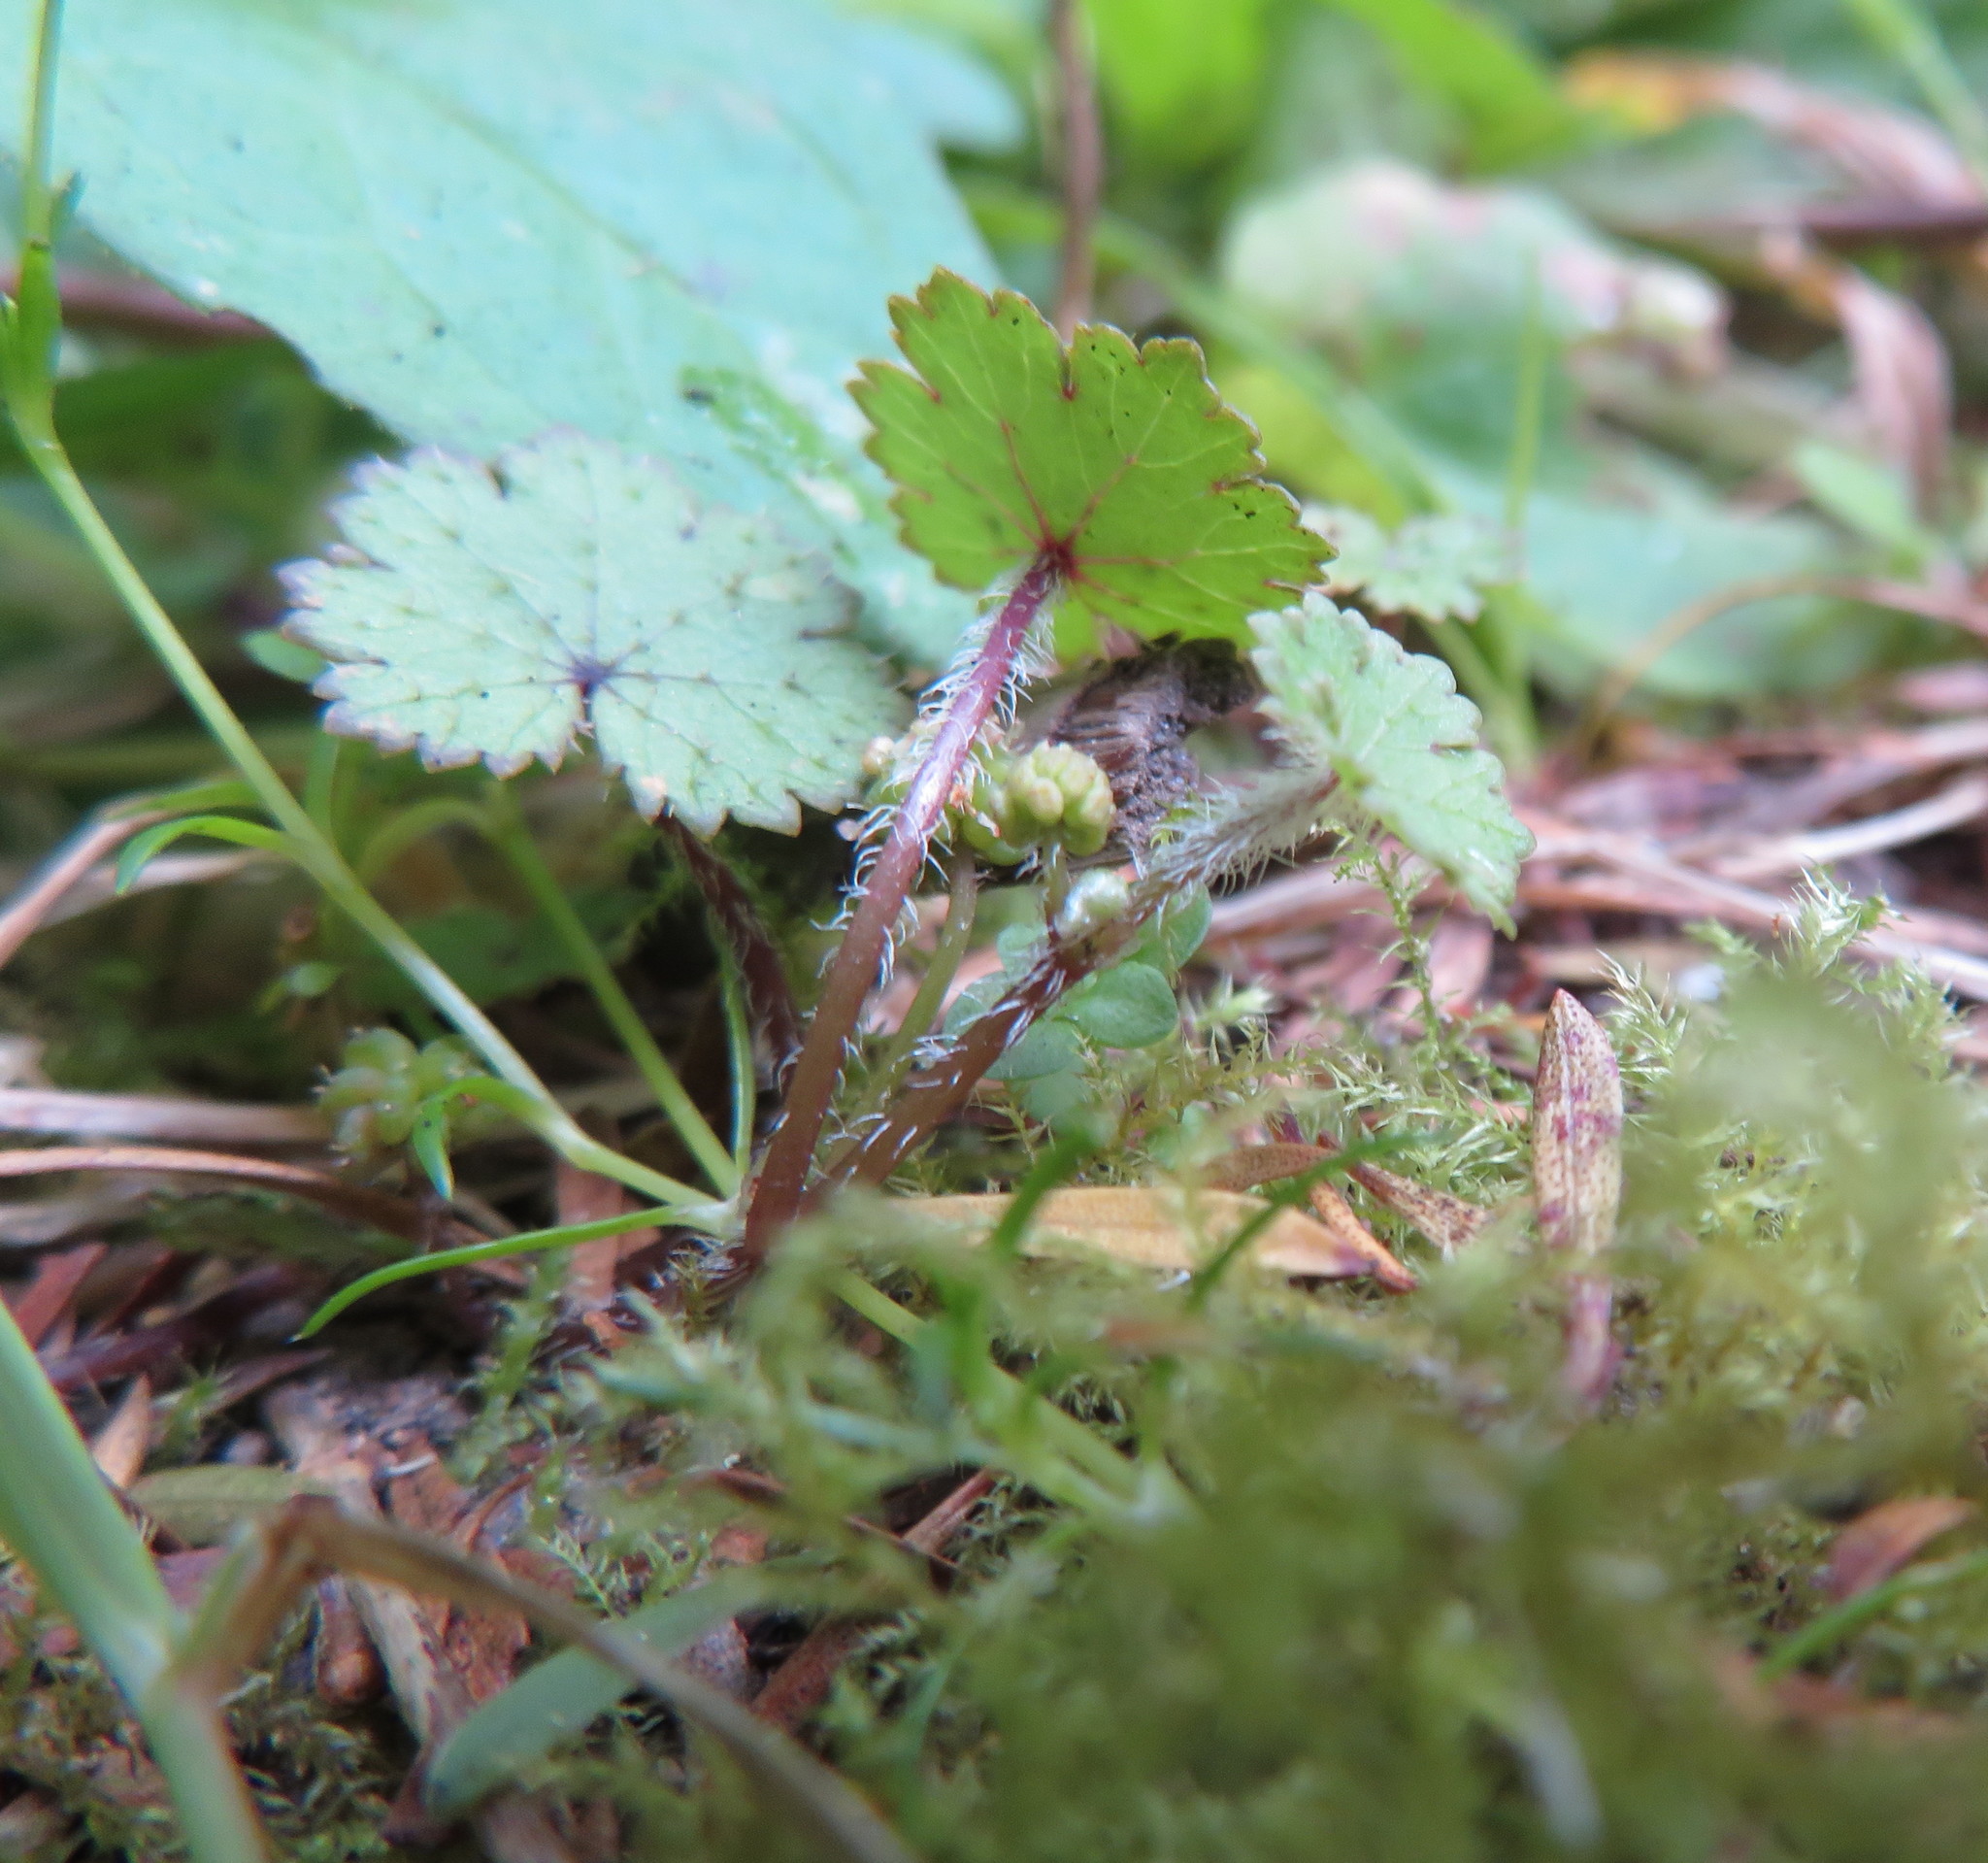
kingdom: Plantae
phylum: Tracheophyta
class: Magnoliopsida
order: Apiales
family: Araliaceae
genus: Hydrocotyle
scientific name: Hydrocotyle moschata
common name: Hairy pennywort
